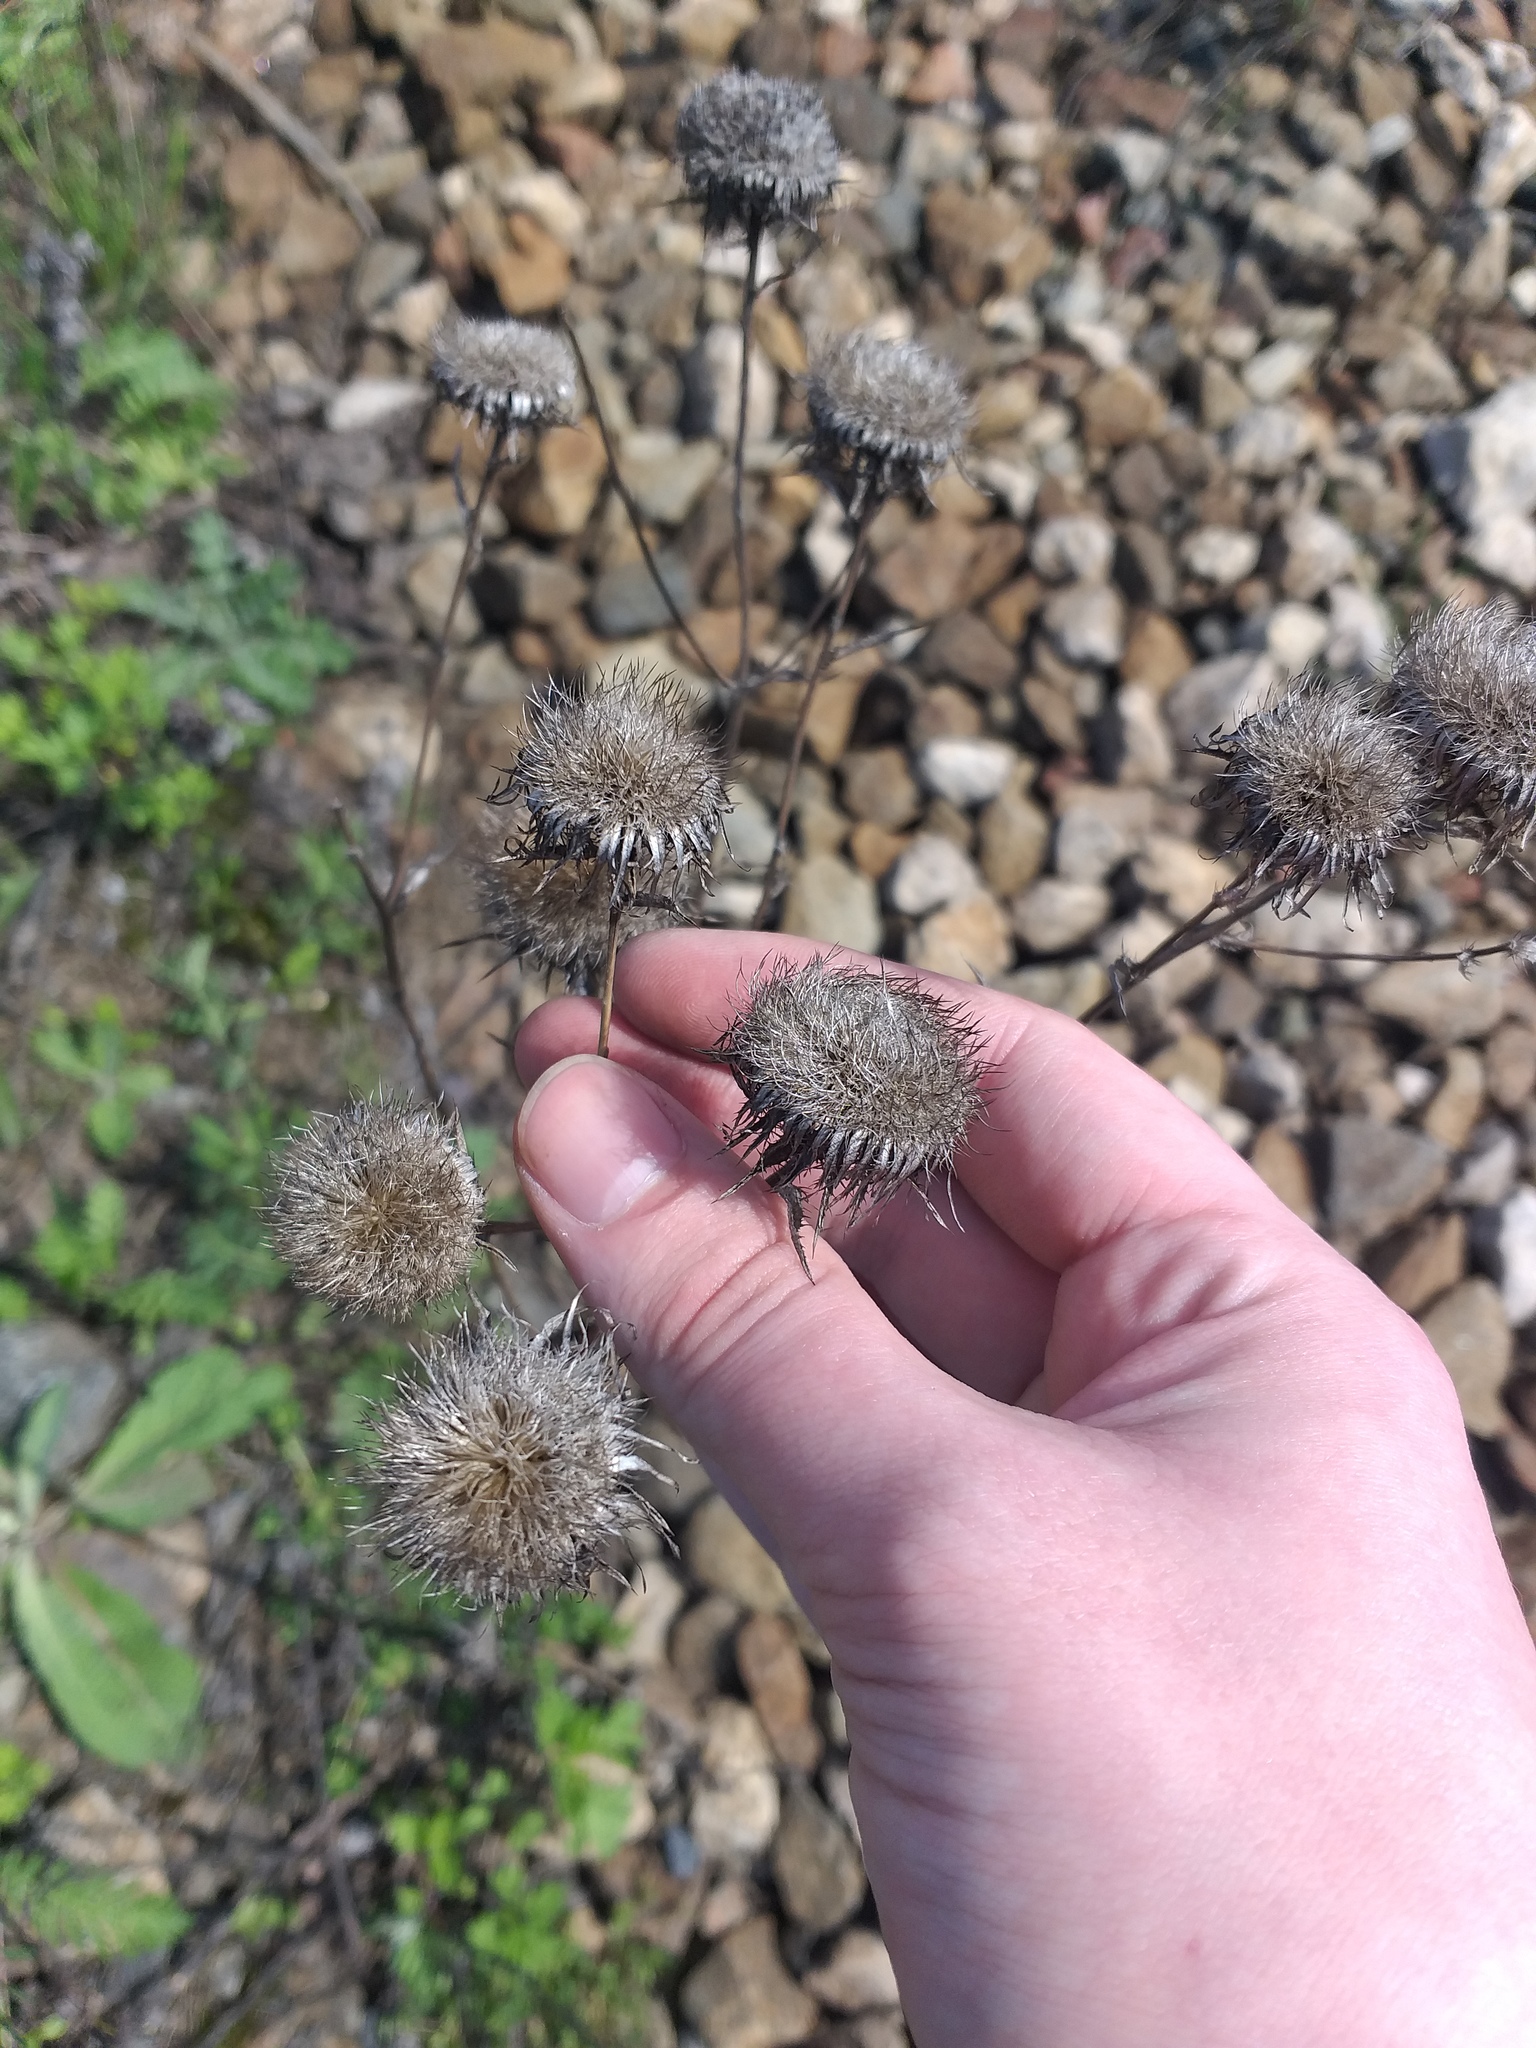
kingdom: Plantae
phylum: Tracheophyta
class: Magnoliopsida
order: Asterales
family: Asteraceae
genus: Carlina
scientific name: Carlina biebersteinii
